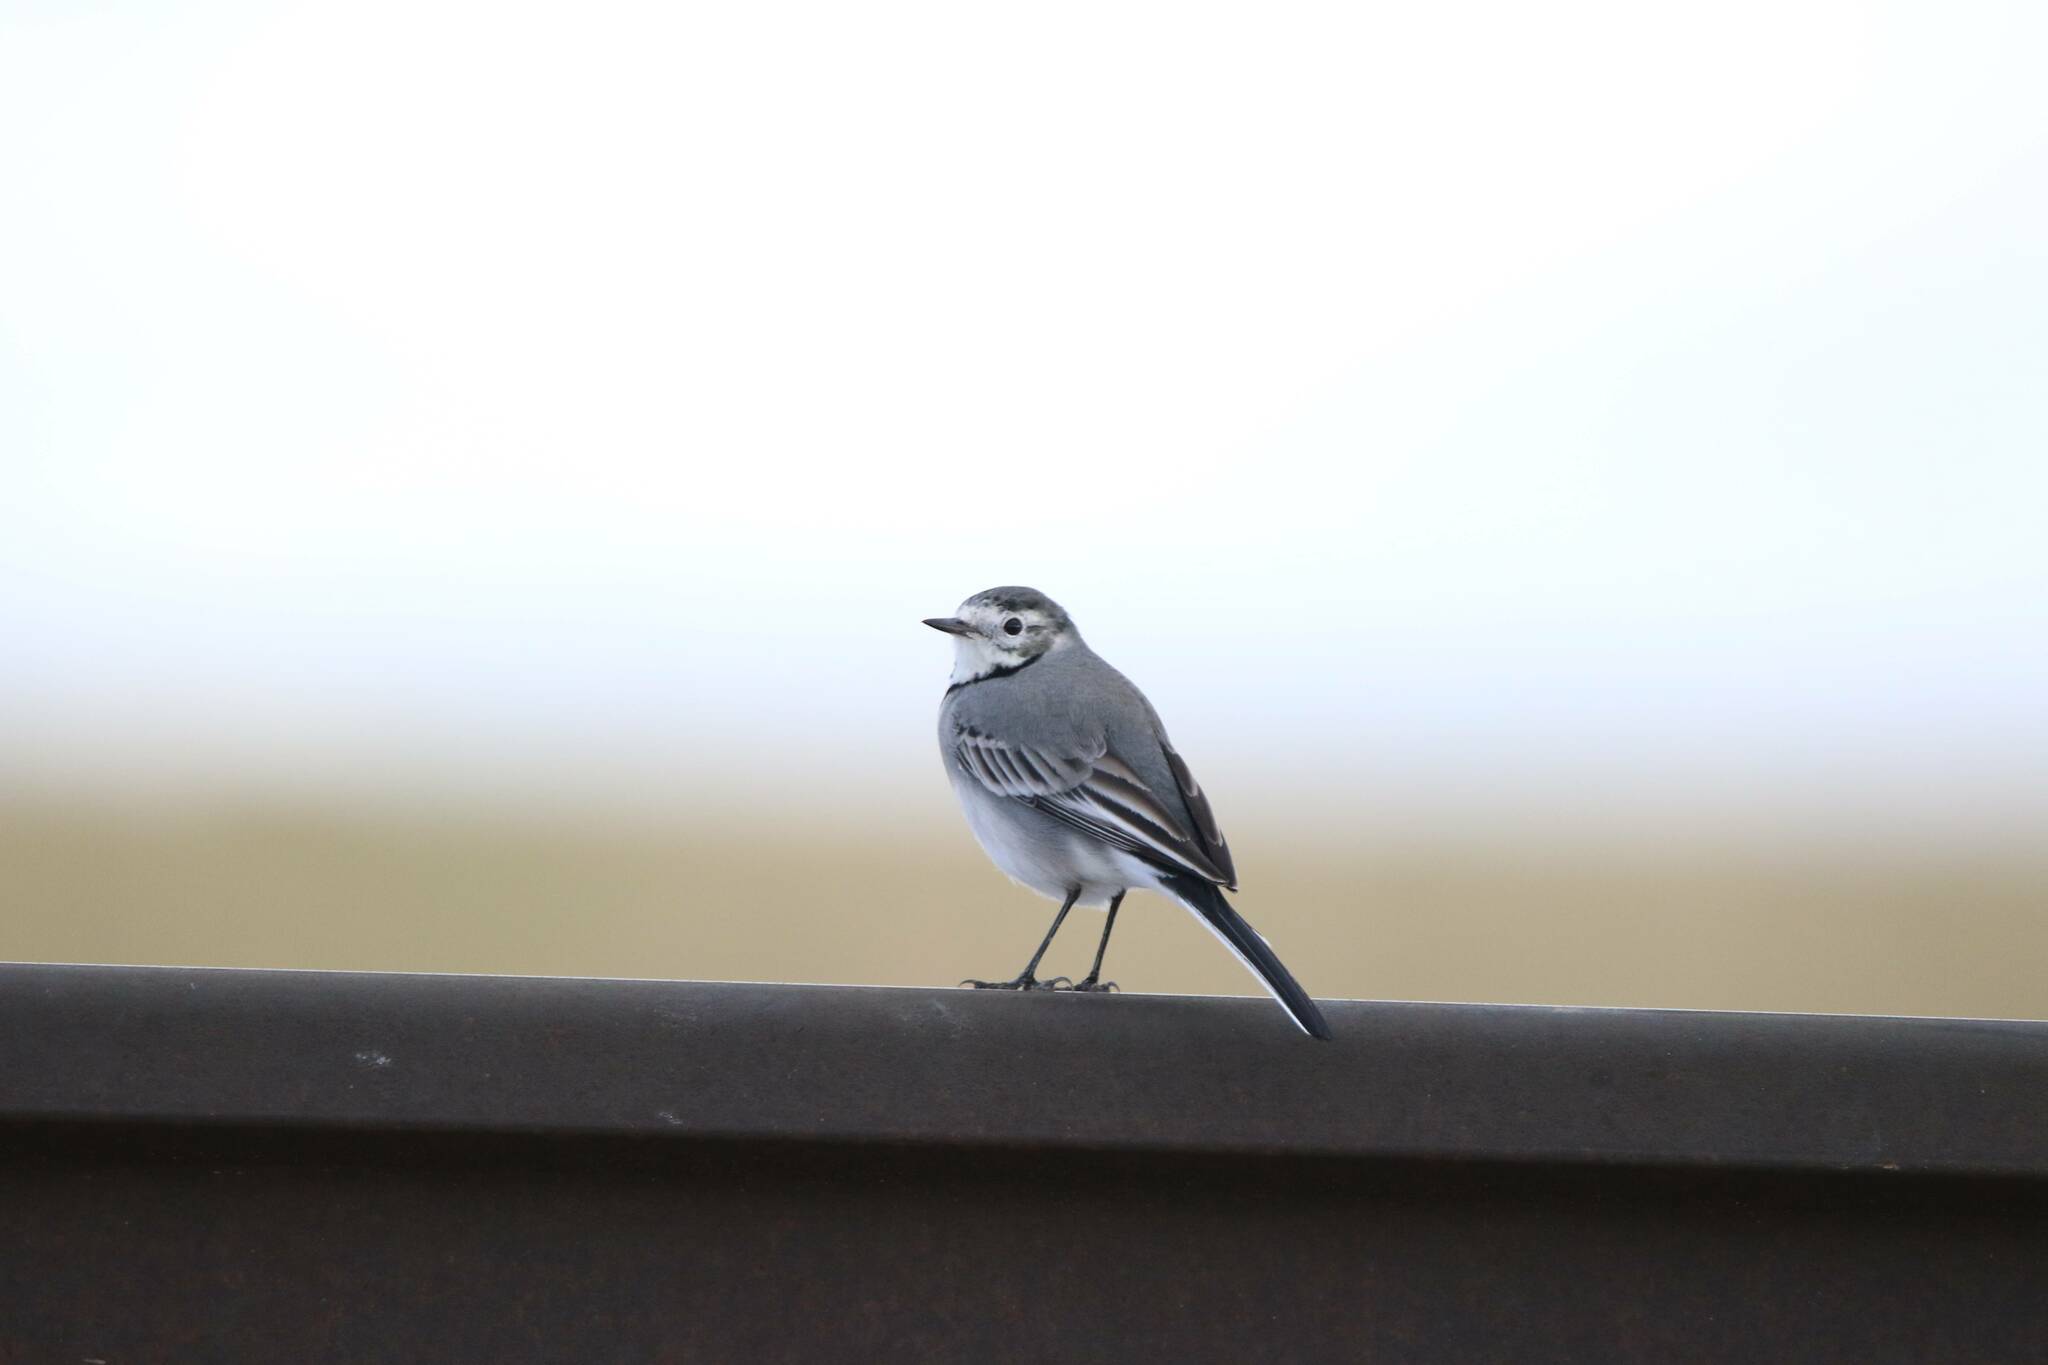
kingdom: Animalia
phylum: Chordata
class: Aves
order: Passeriformes
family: Motacillidae
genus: Motacilla
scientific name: Motacilla alba
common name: White wagtail
